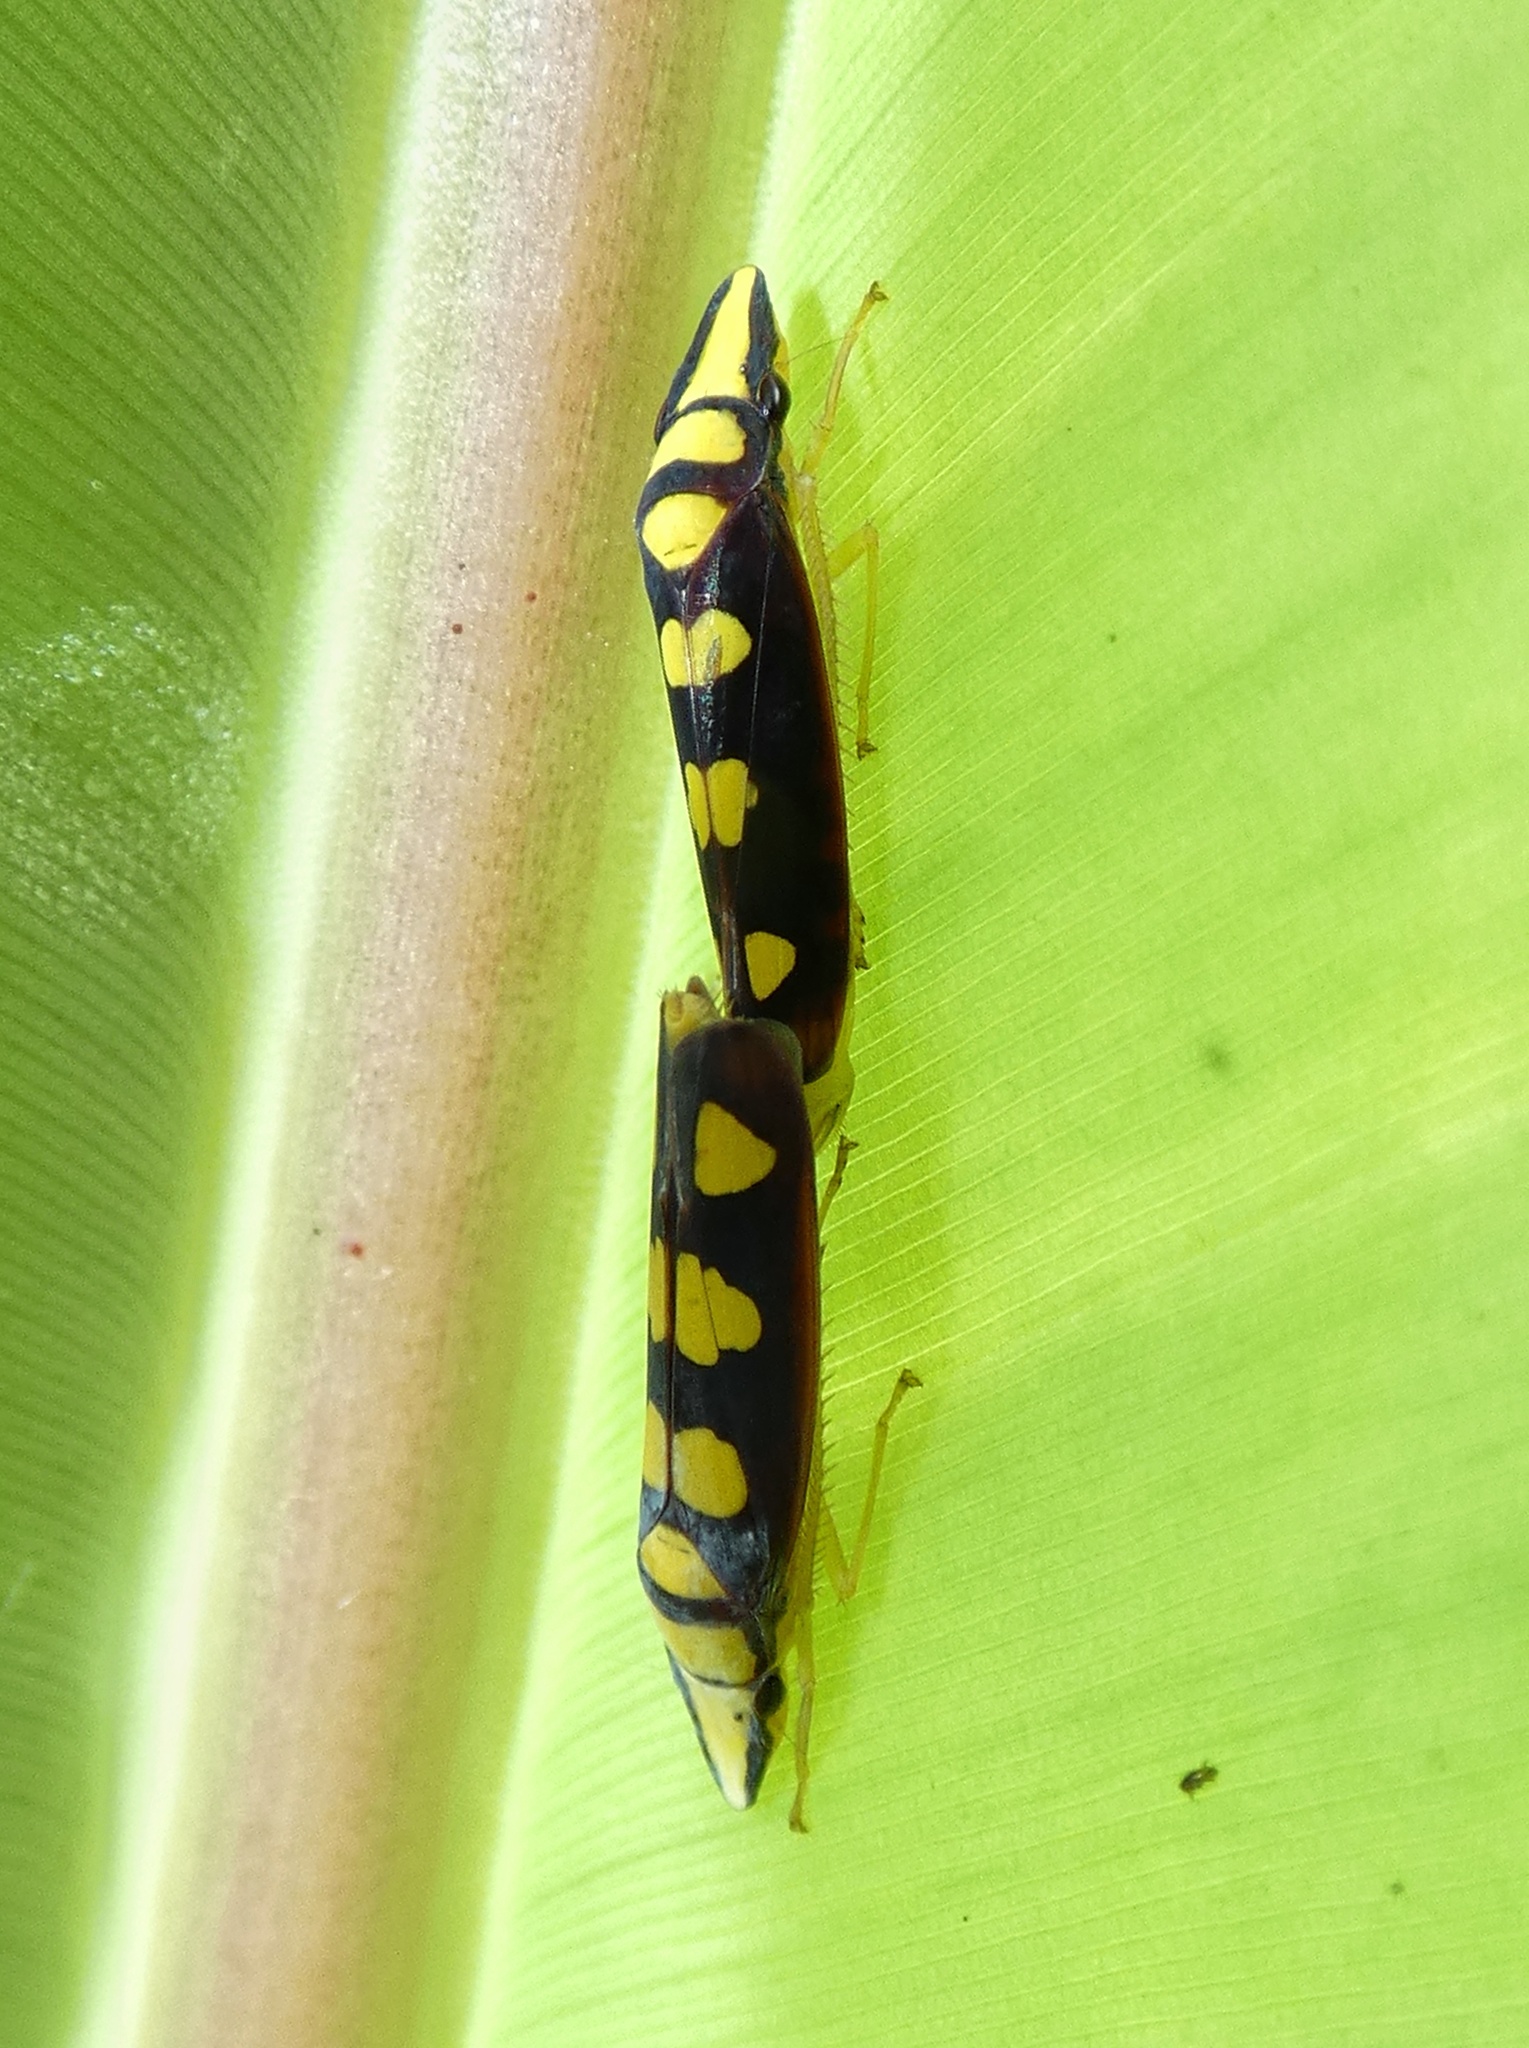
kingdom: Animalia
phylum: Arthropoda
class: Insecta
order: Hemiptera
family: Cicadellidae
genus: Platygonia
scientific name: Platygonia spatulata
